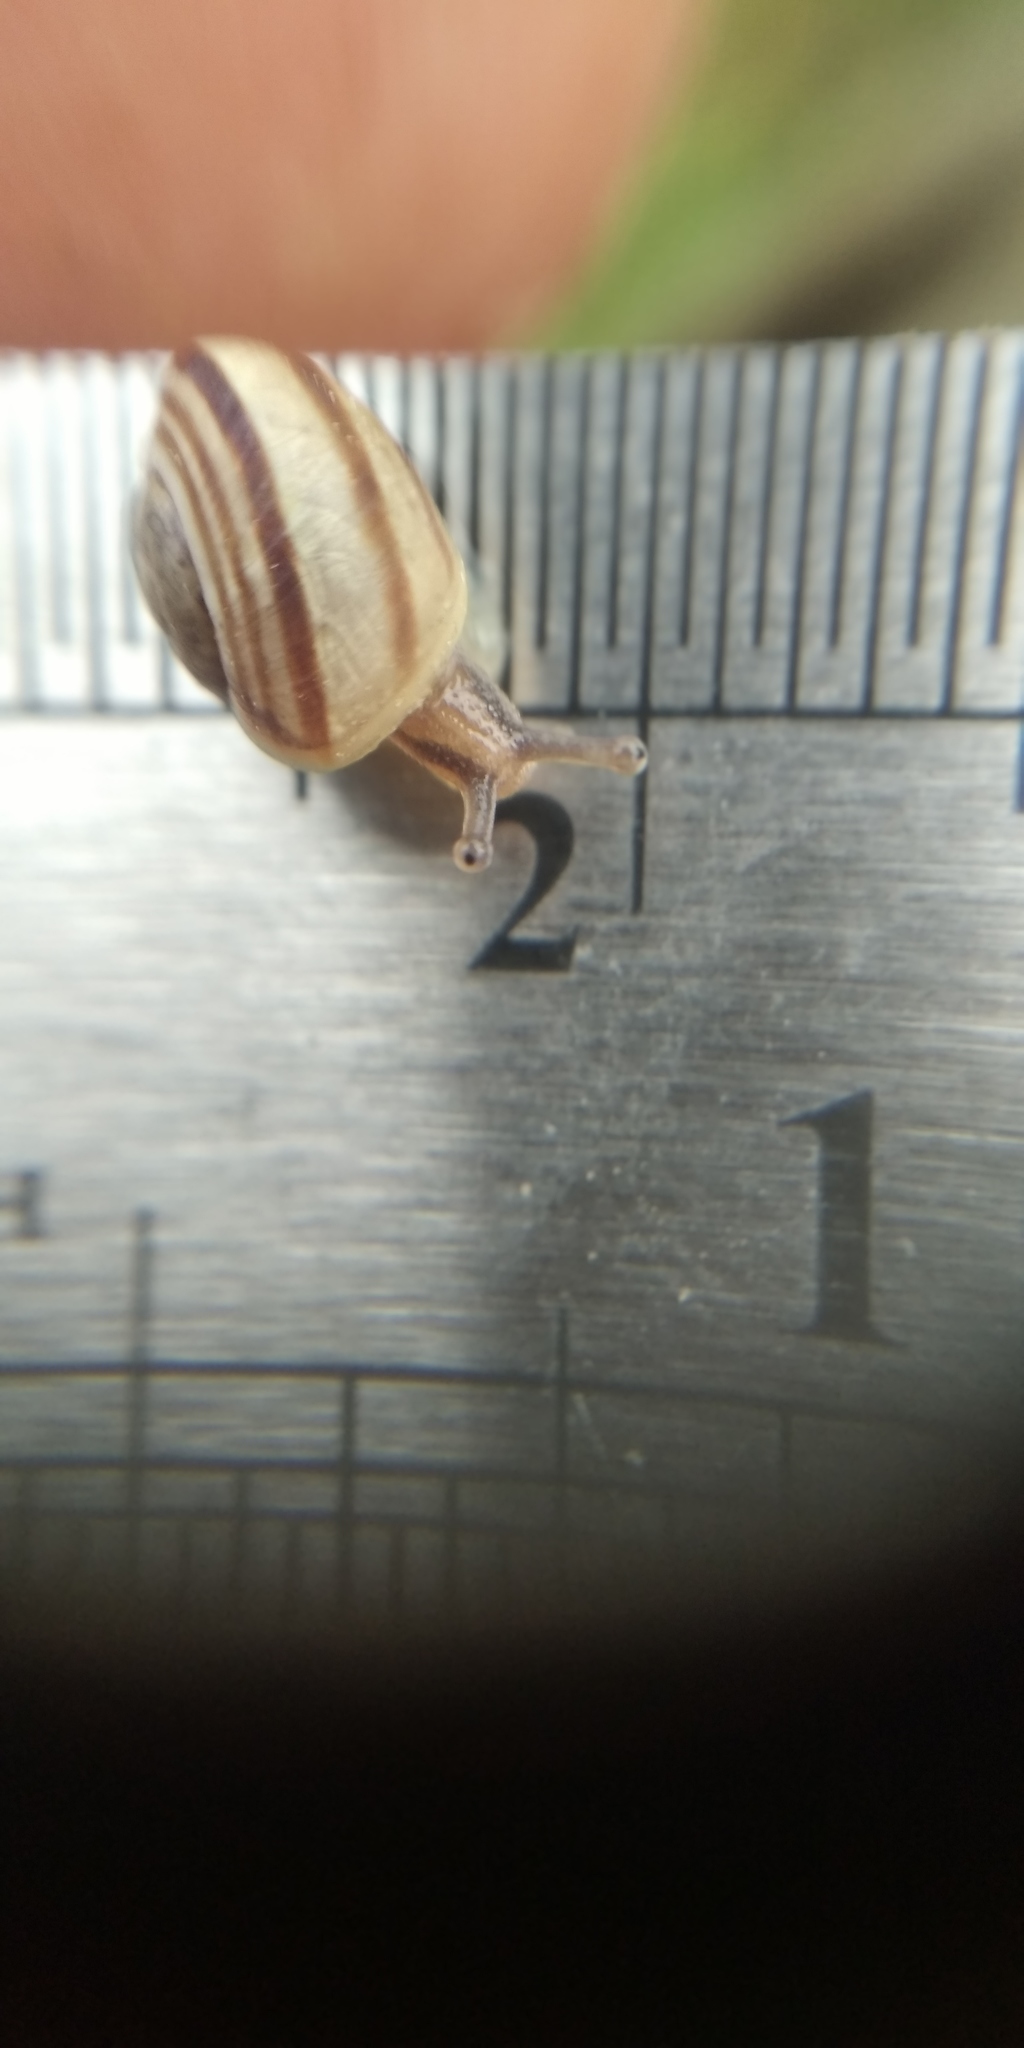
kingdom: Animalia
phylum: Mollusca
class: Gastropoda
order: Stylommatophora
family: Helicidae
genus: Caucasotachea
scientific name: Caucasotachea vindobonensis
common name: European helicid land snail
